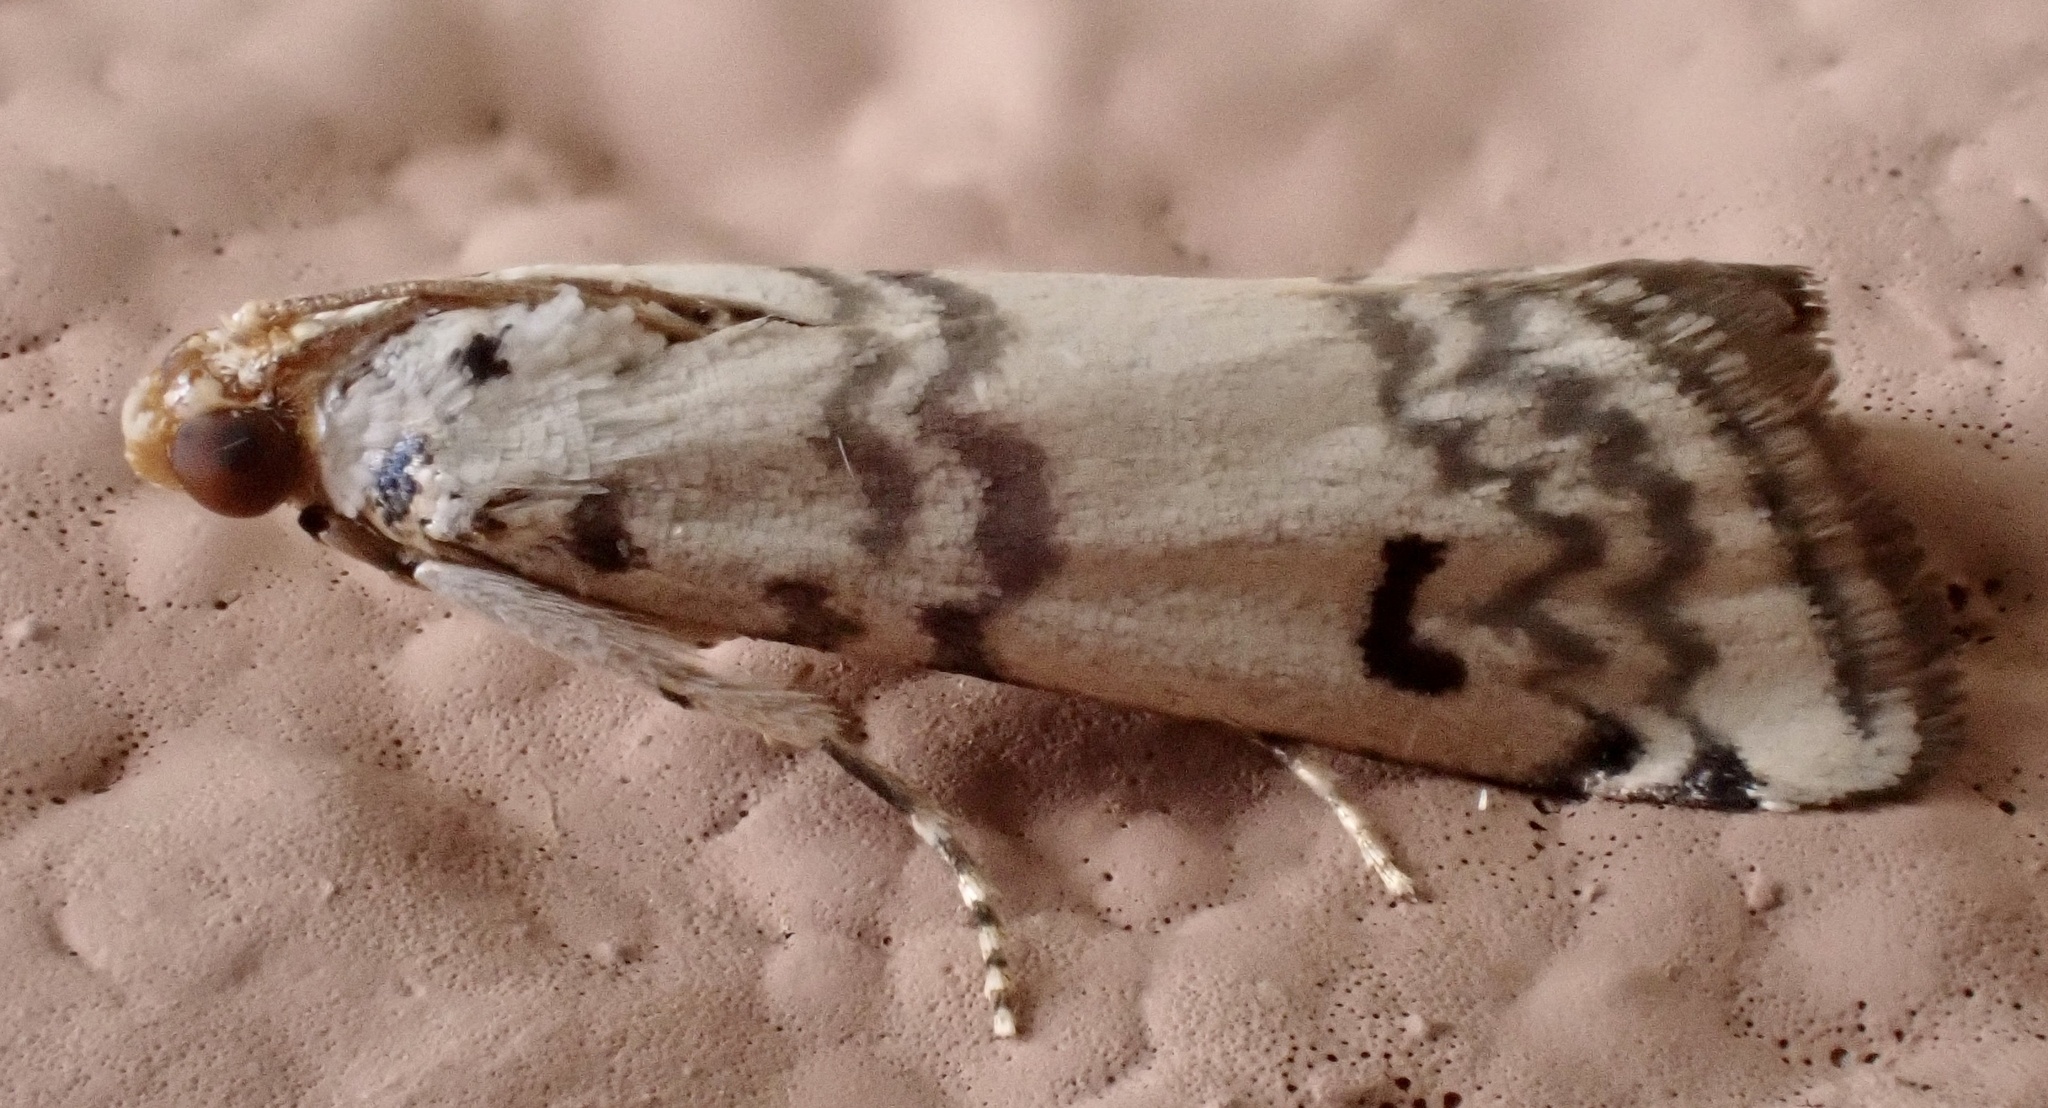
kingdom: Animalia
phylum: Arthropoda
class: Insecta
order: Lepidoptera
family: Pyralidae
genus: Euzophera
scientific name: Euzophera lunulella
